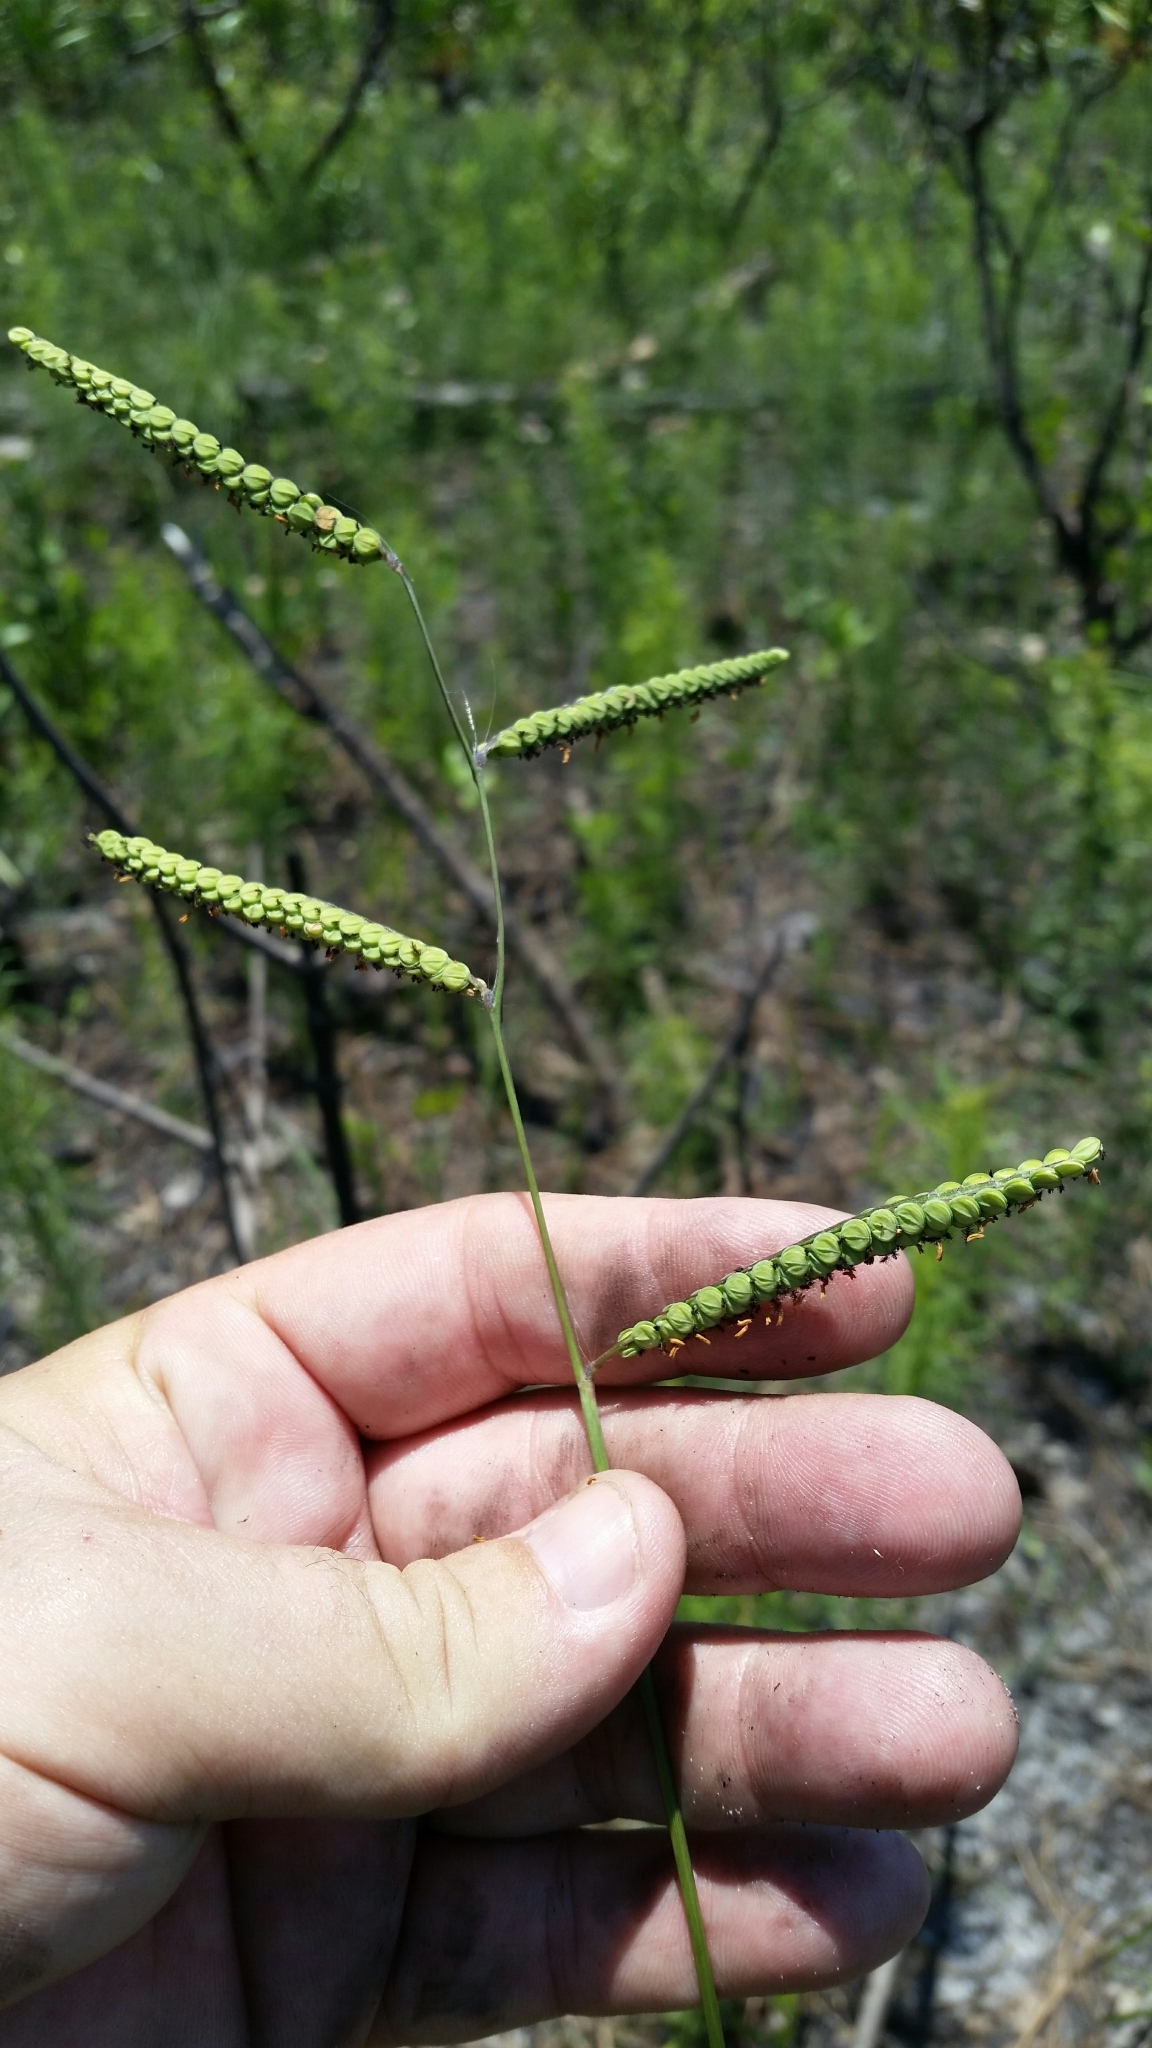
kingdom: Plantae
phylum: Tracheophyta
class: Liliopsida
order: Poales
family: Poaceae
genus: Paspalum
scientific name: Paspalum praecox
